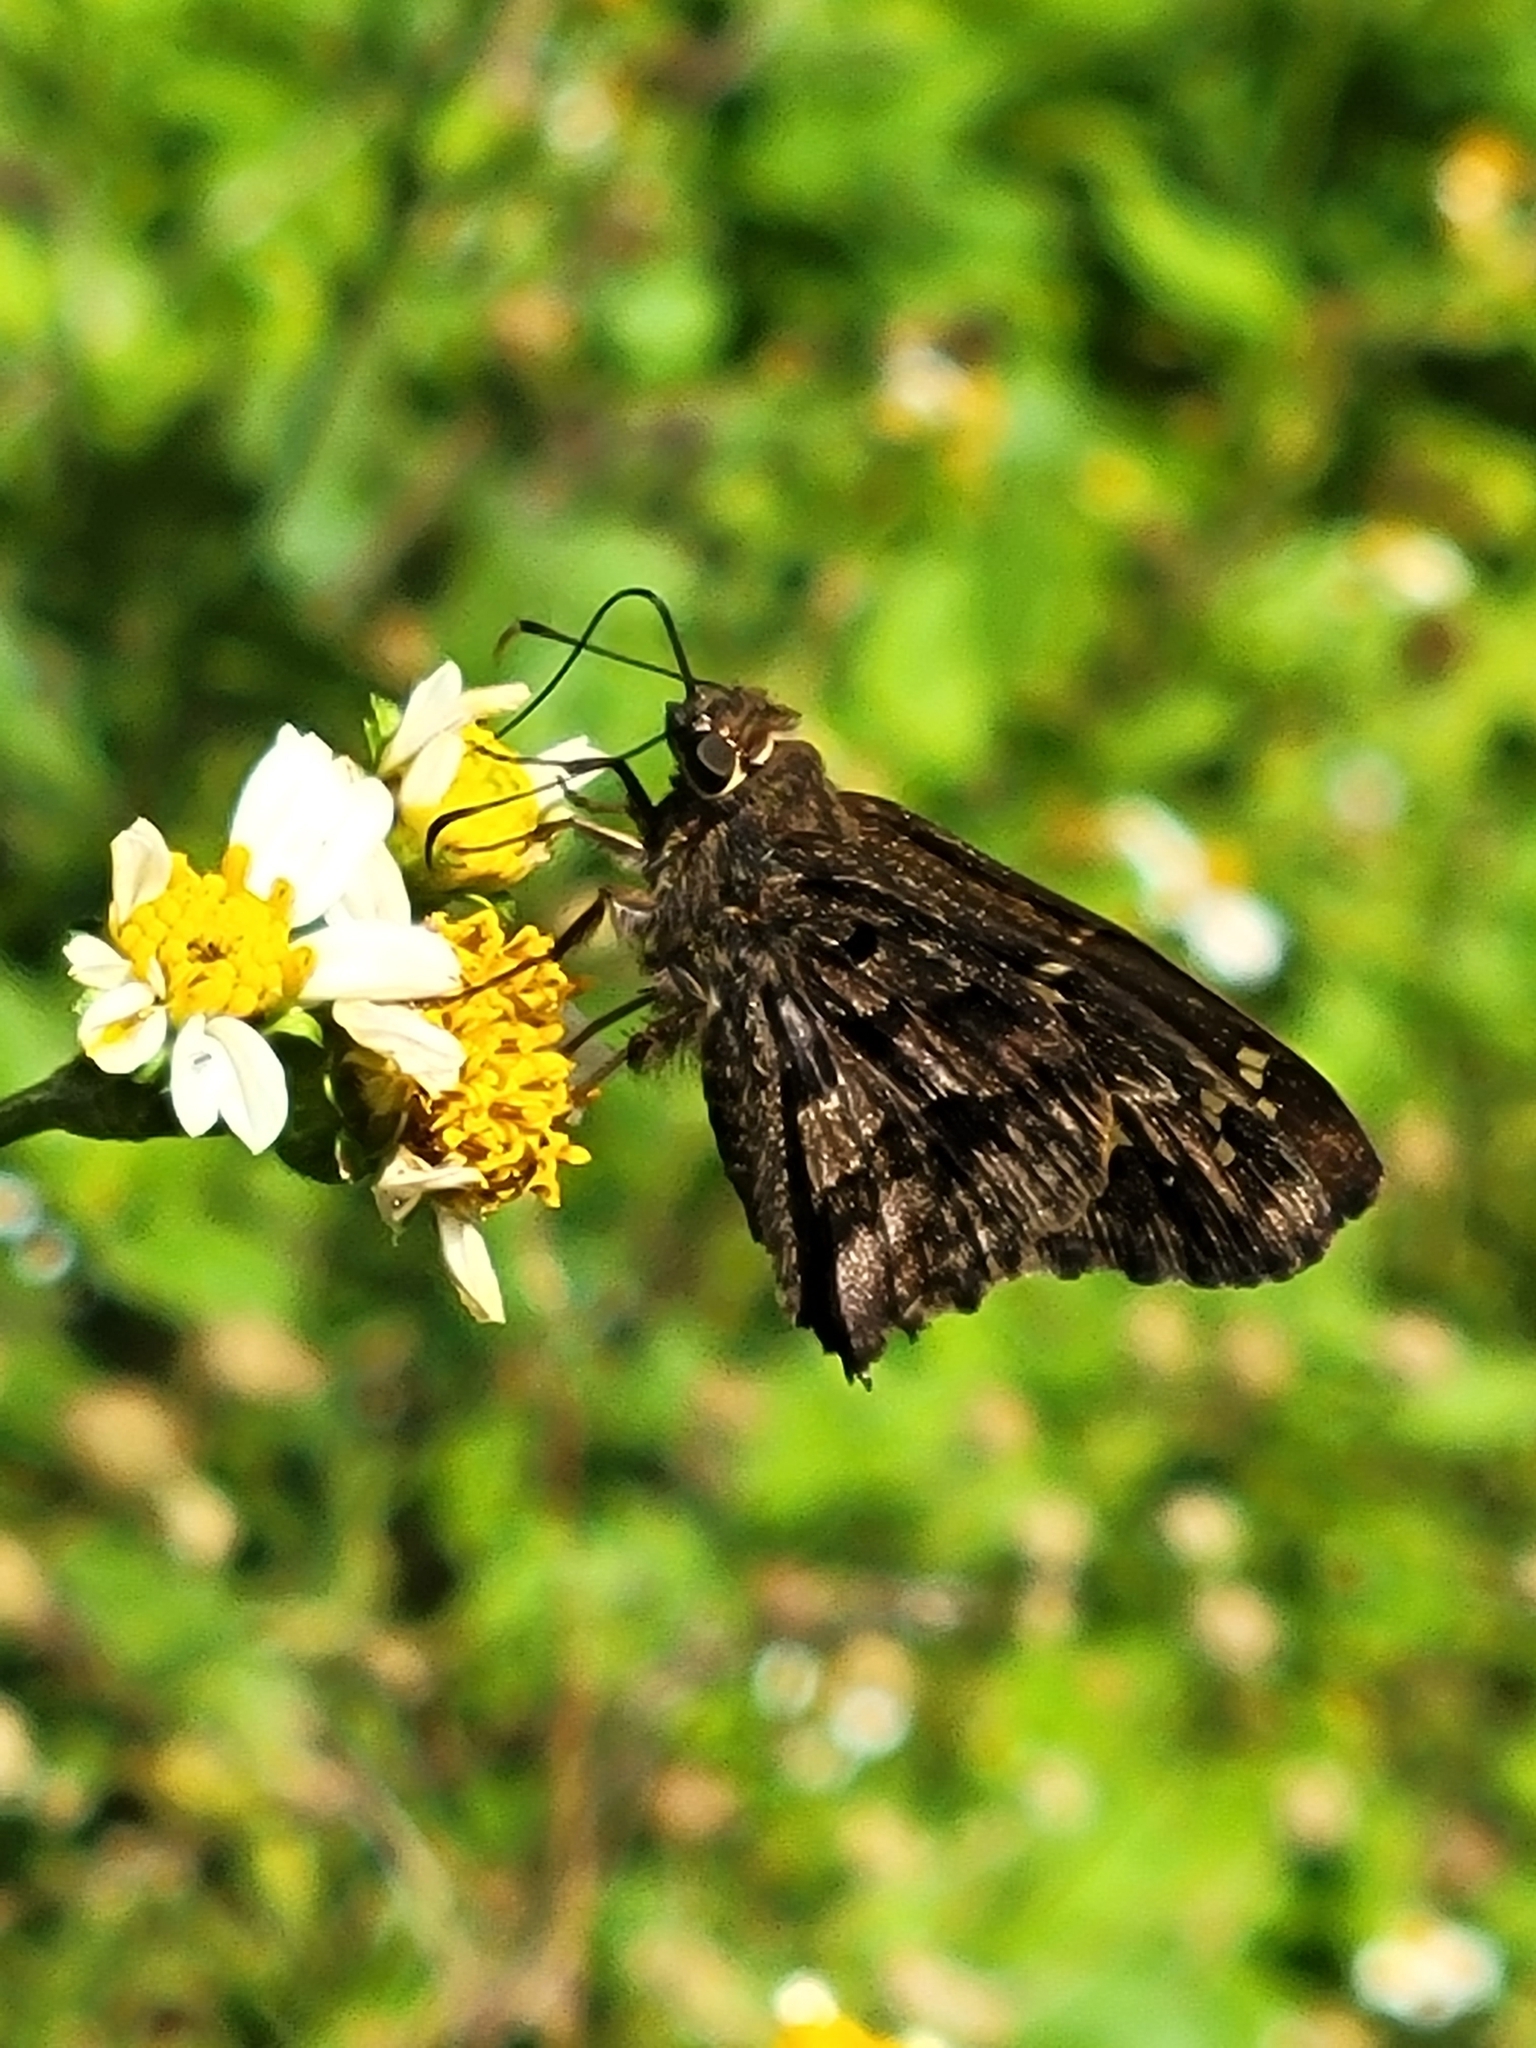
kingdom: Animalia
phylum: Arthropoda
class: Insecta
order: Lepidoptera
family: Hesperiidae
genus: Thorybes
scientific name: Thorybes
